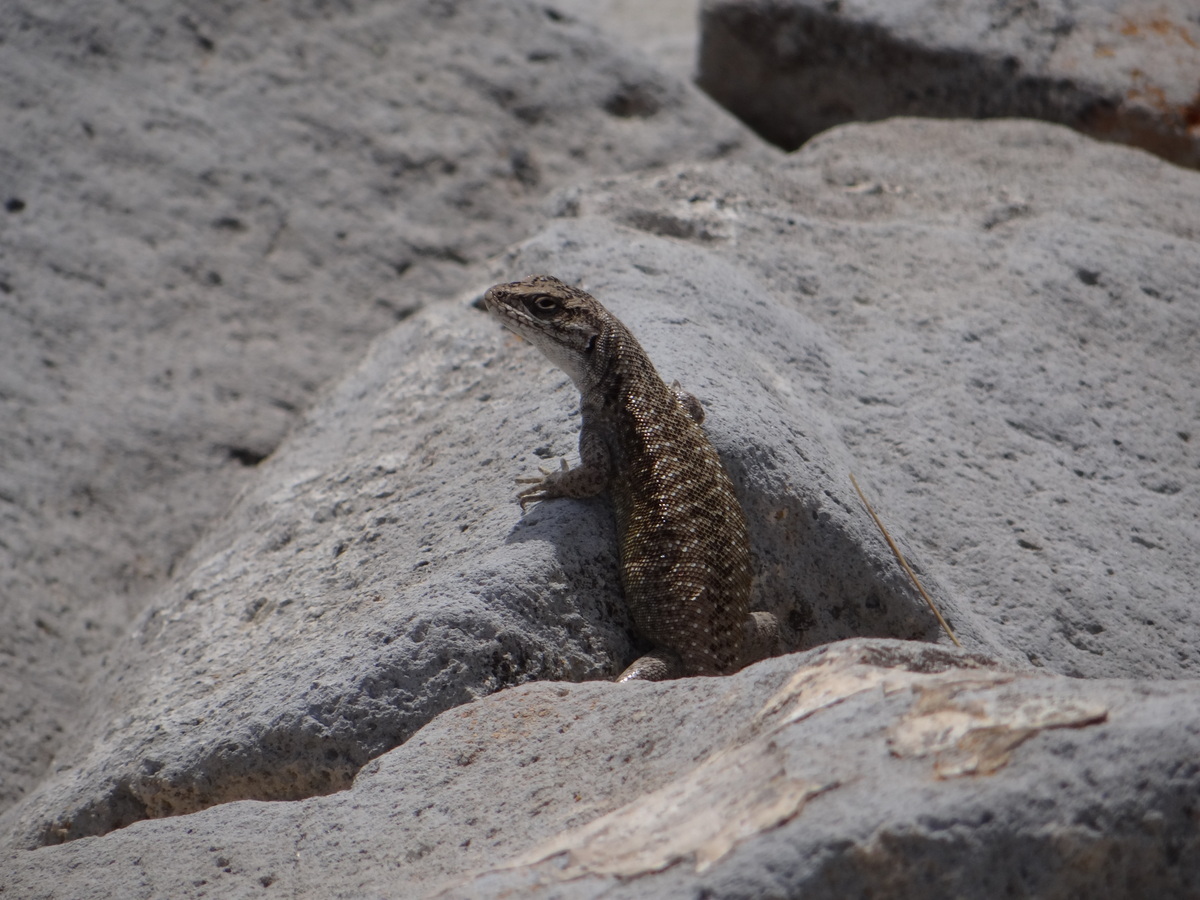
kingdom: Animalia
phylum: Chordata
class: Squamata
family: Liolaemidae
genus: Liolaemus
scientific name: Liolaemus smaug
